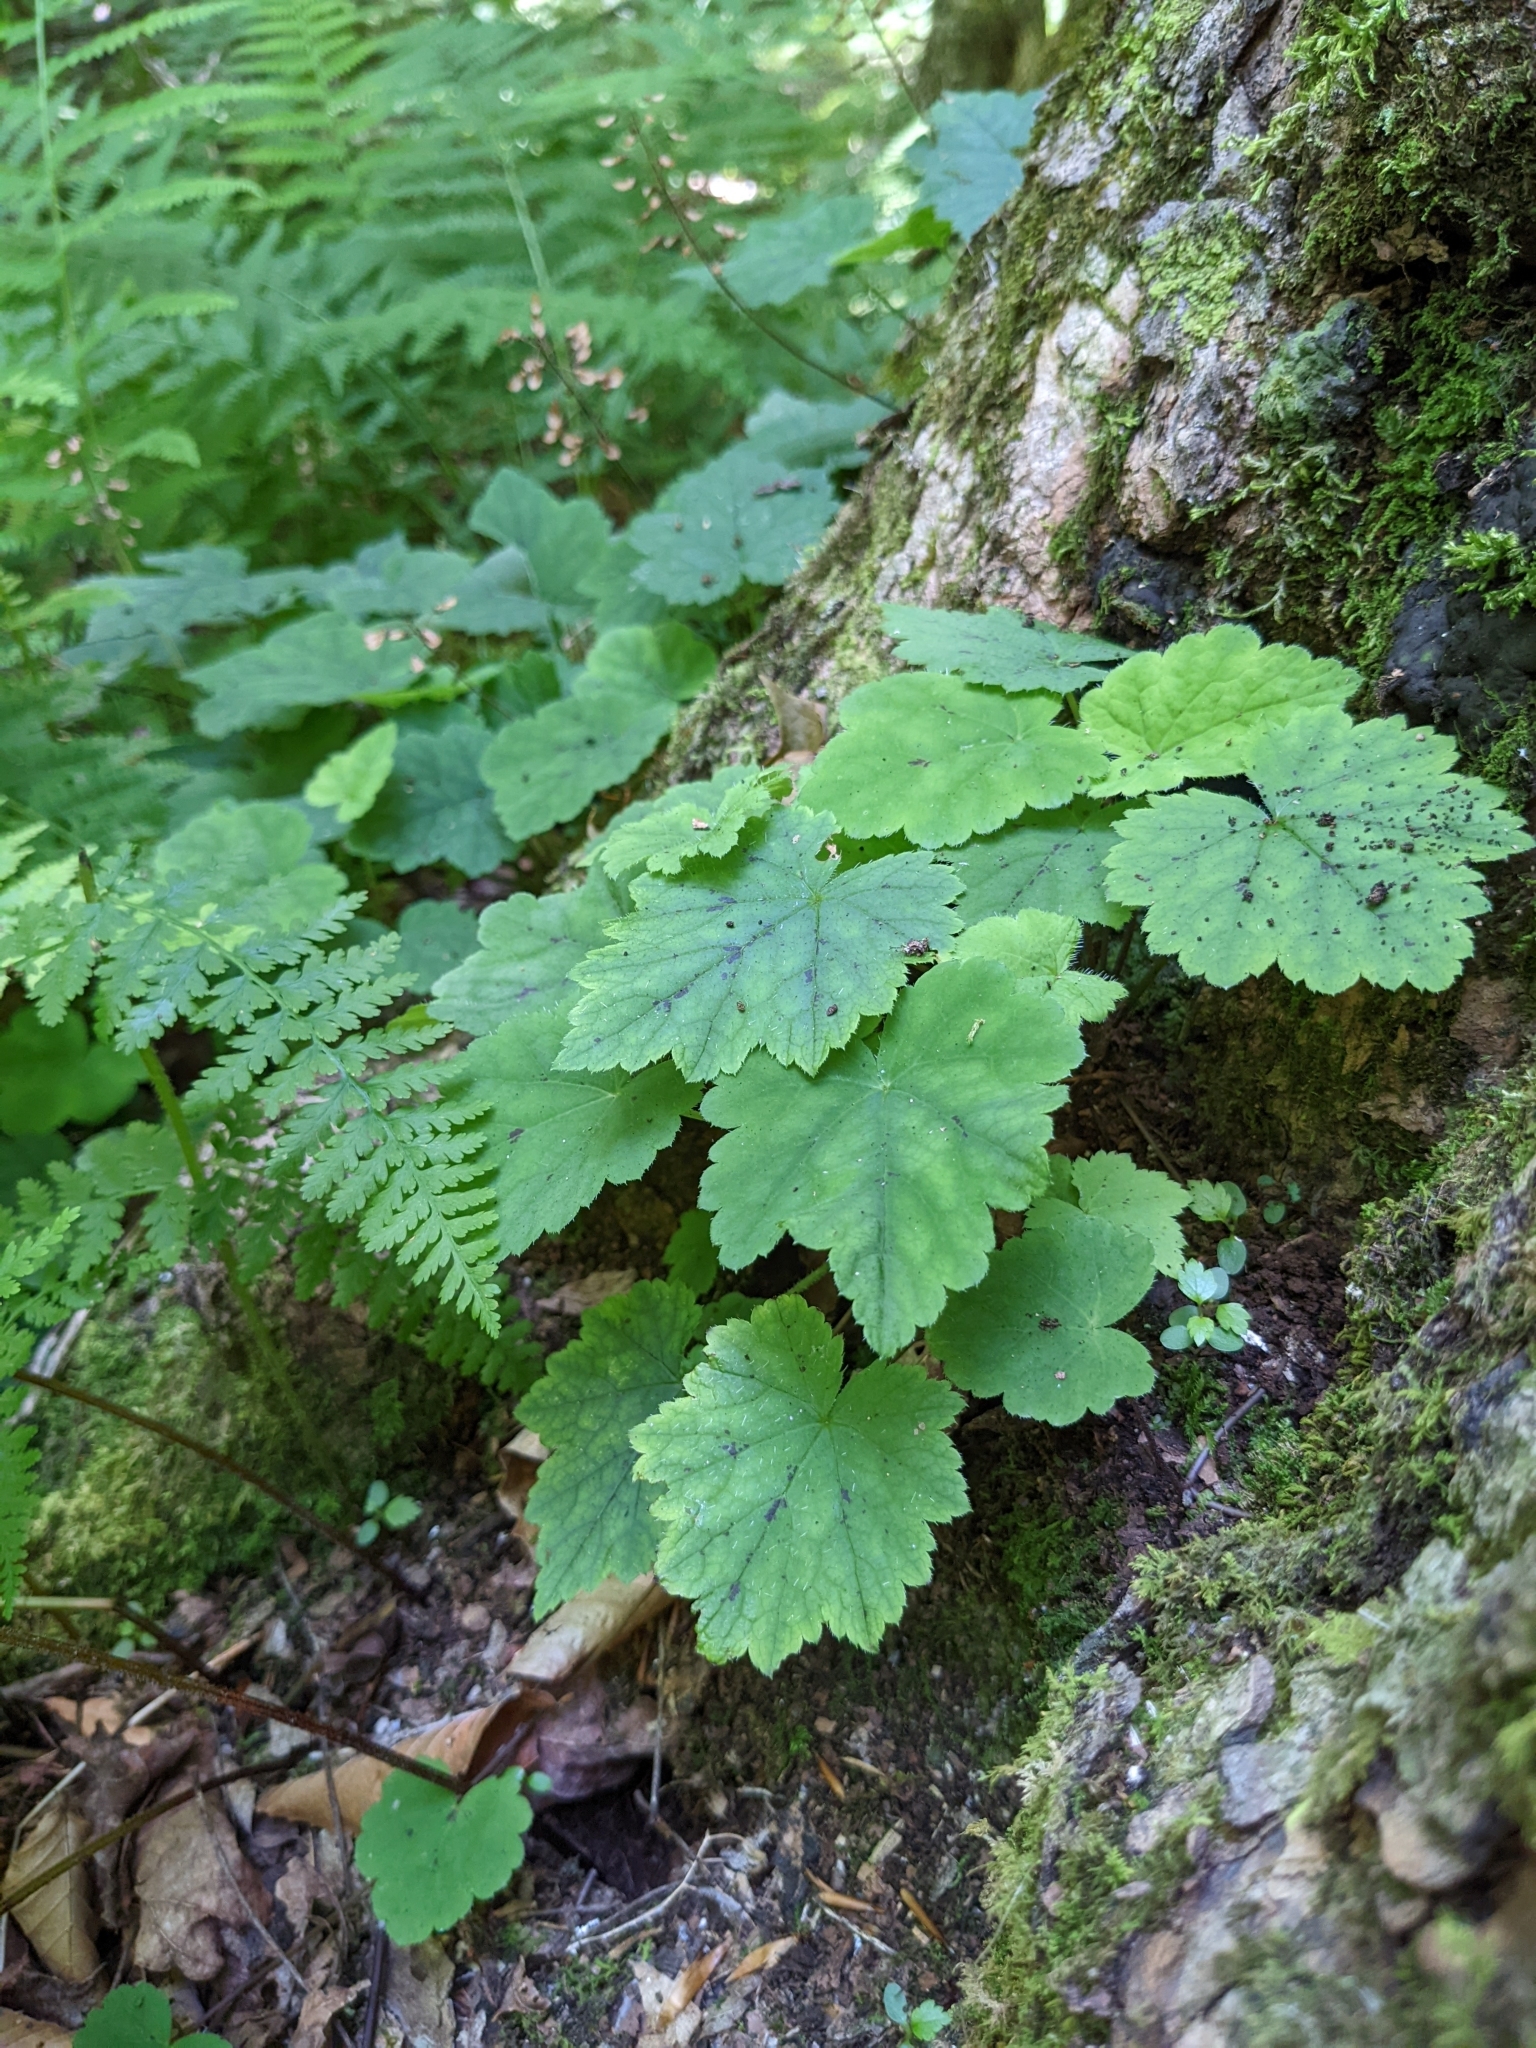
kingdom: Plantae
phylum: Tracheophyta
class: Magnoliopsida
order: Saxifragales
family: Saxifragaceae
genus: Tiarella
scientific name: Tiarella stolonifera
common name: Stoloniferous foamflower
